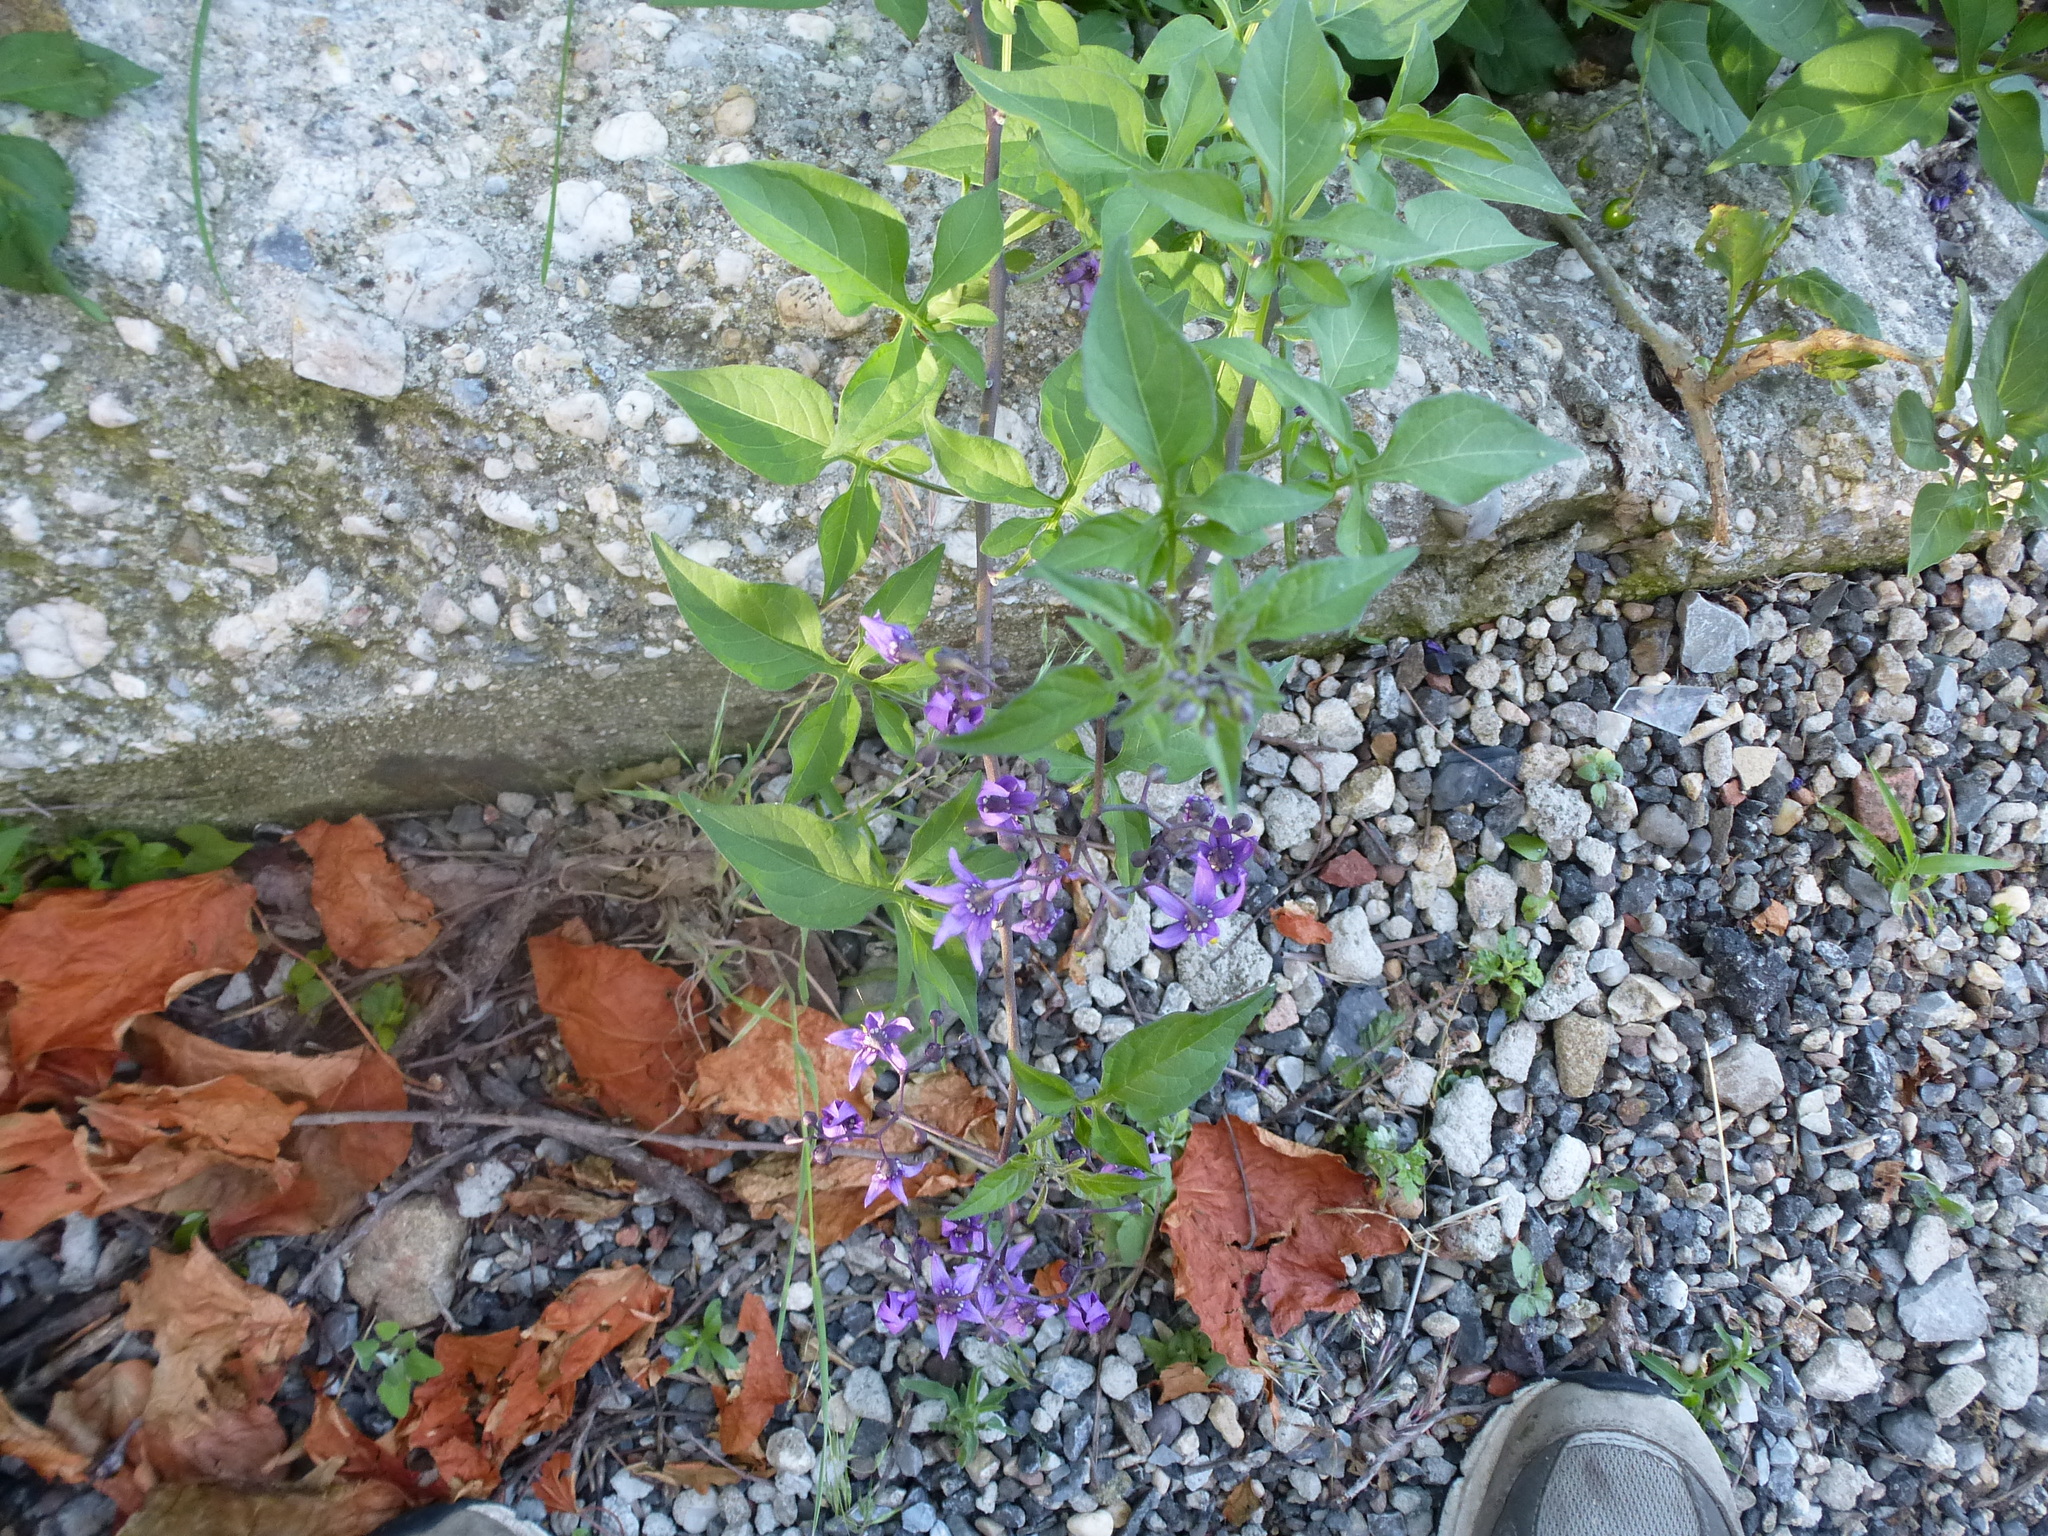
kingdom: Plantae
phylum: Tracheophyta
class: Magnoliopsida
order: Solanales
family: Solanaceae
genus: Solanum
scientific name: Solanum dulcamara
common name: Climbing nightshade
